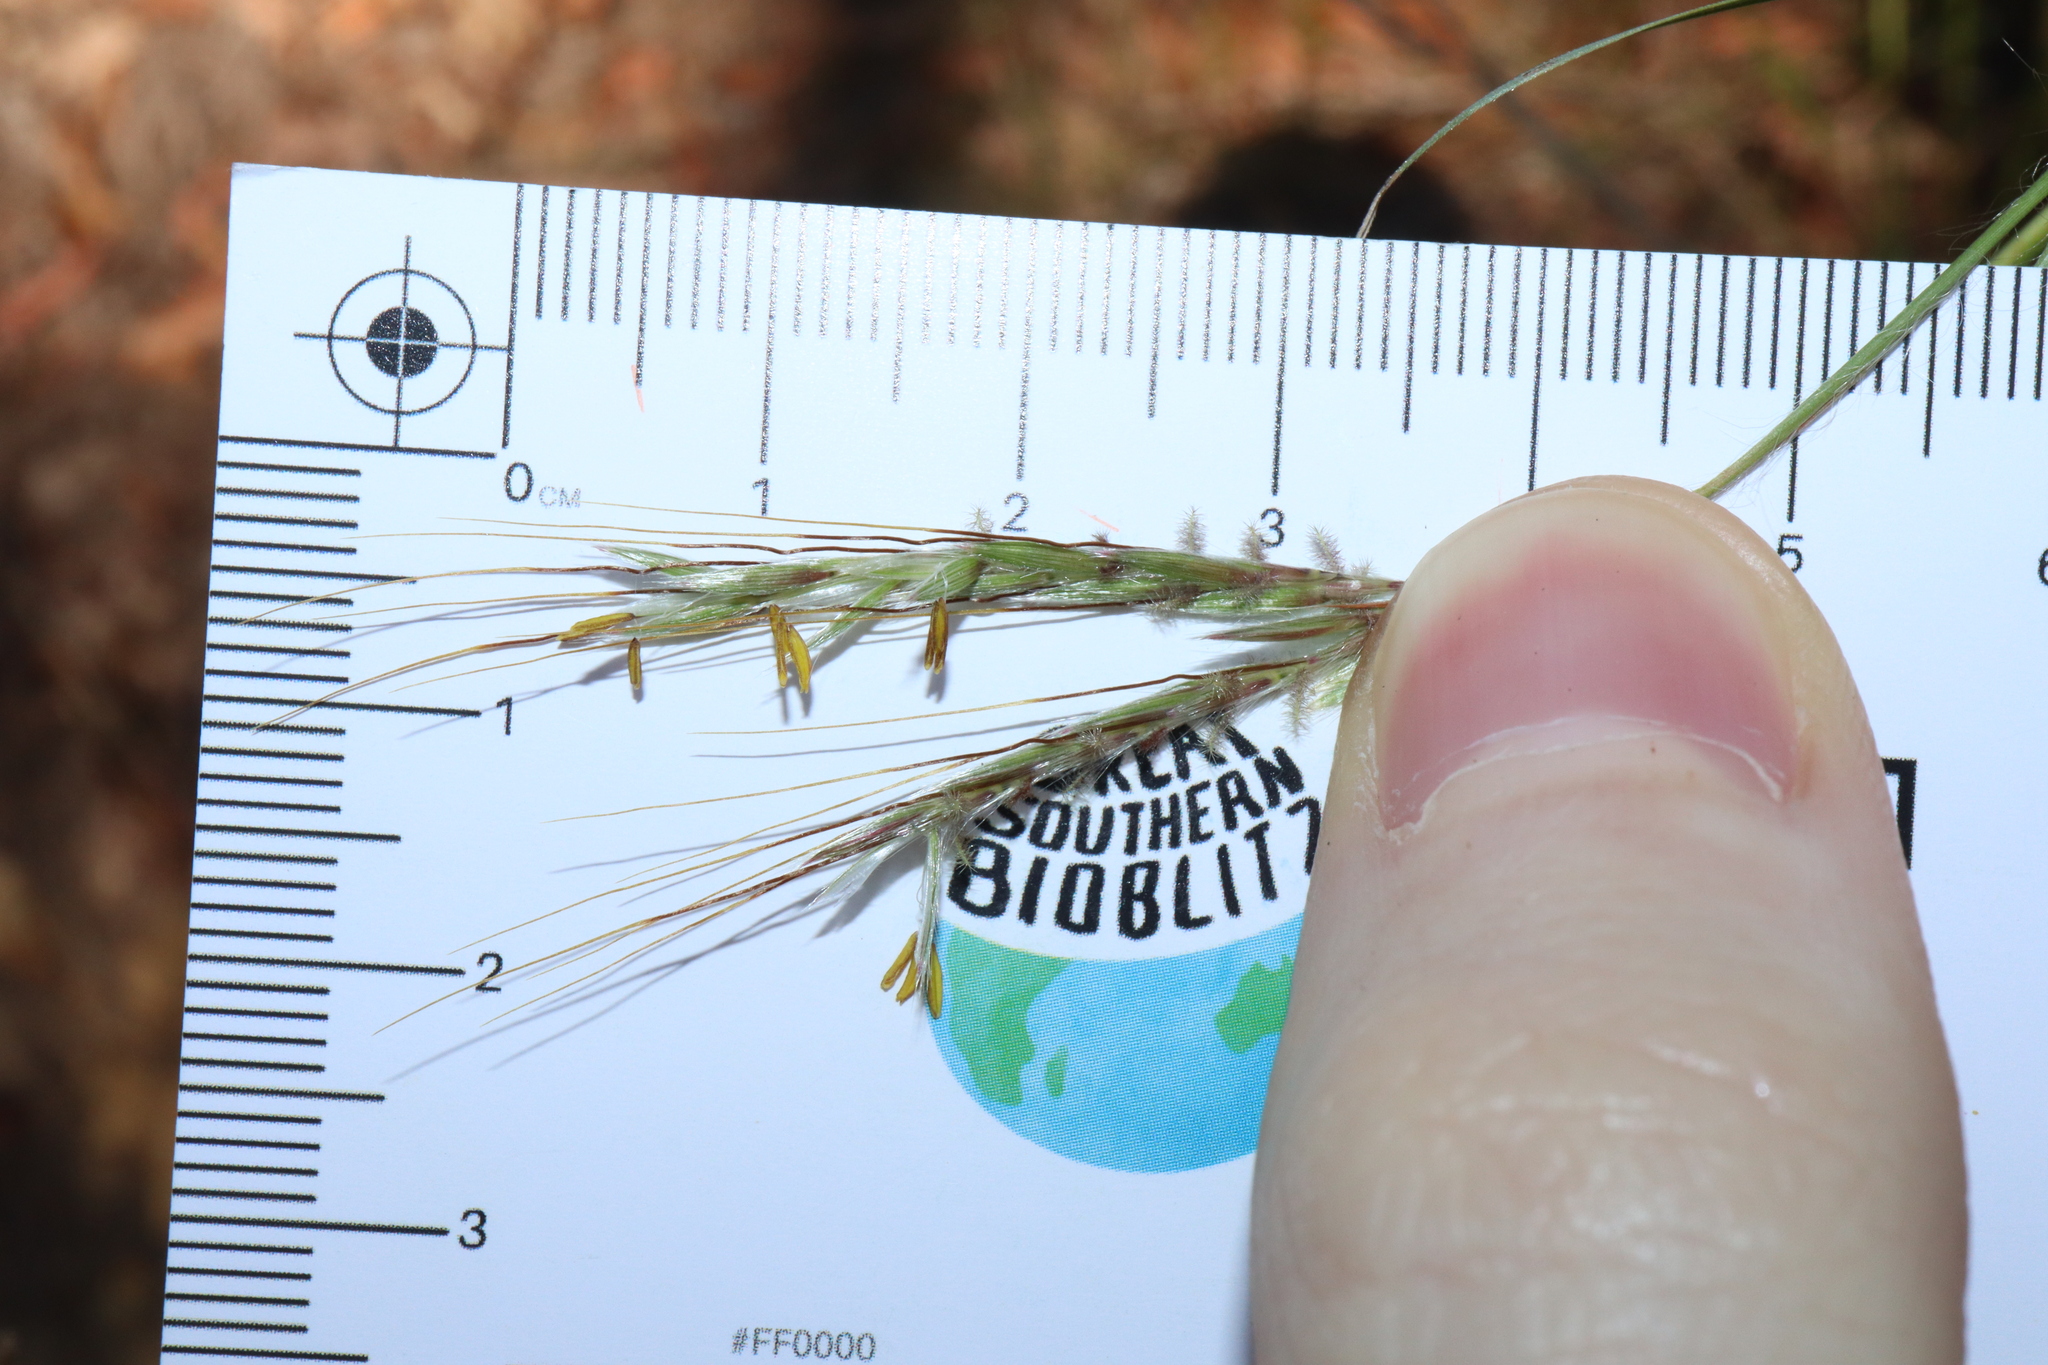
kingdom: Plantae
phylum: Tracheophyta
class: Liliopsida
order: Poales
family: Poaceae
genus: Hyparrhenia
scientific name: Hyparrhenia hirta
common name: Thatching grass
